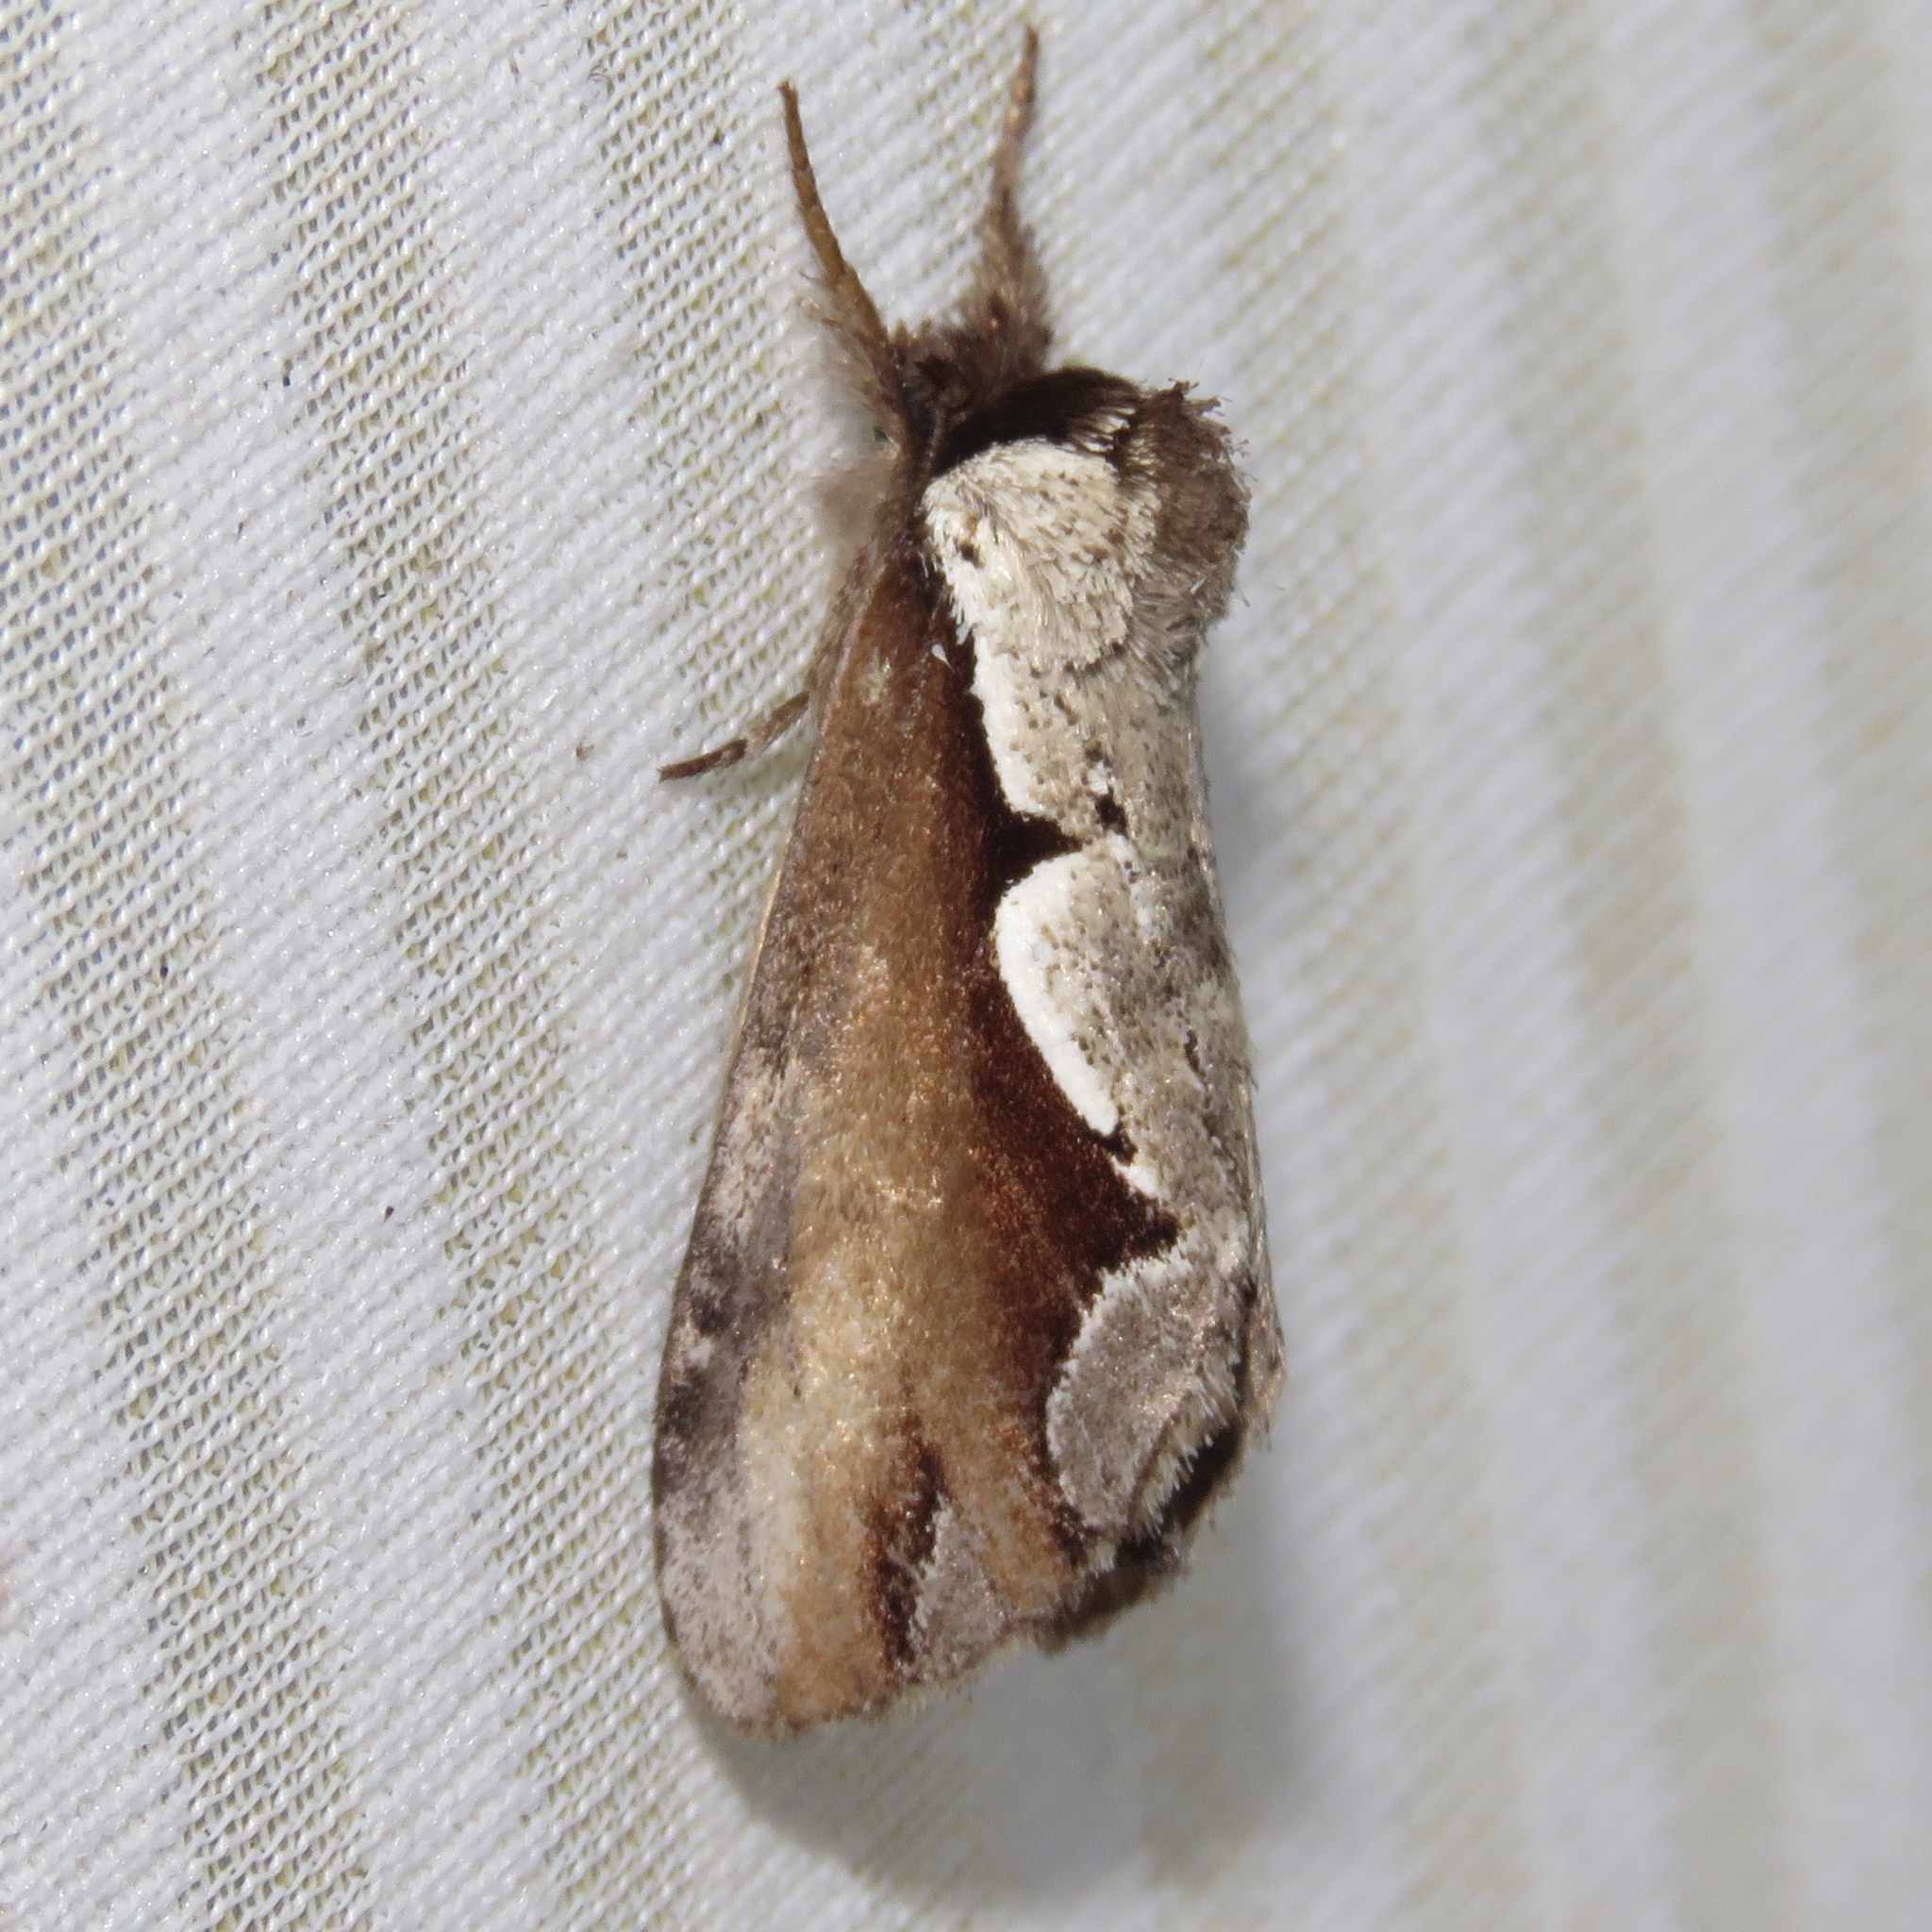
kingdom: Animalia
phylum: Arthropoda
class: Insecta
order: Lepidoptera
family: Notodontidae
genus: Nerice
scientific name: Nerice bidentata
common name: Double-toothed prominent
